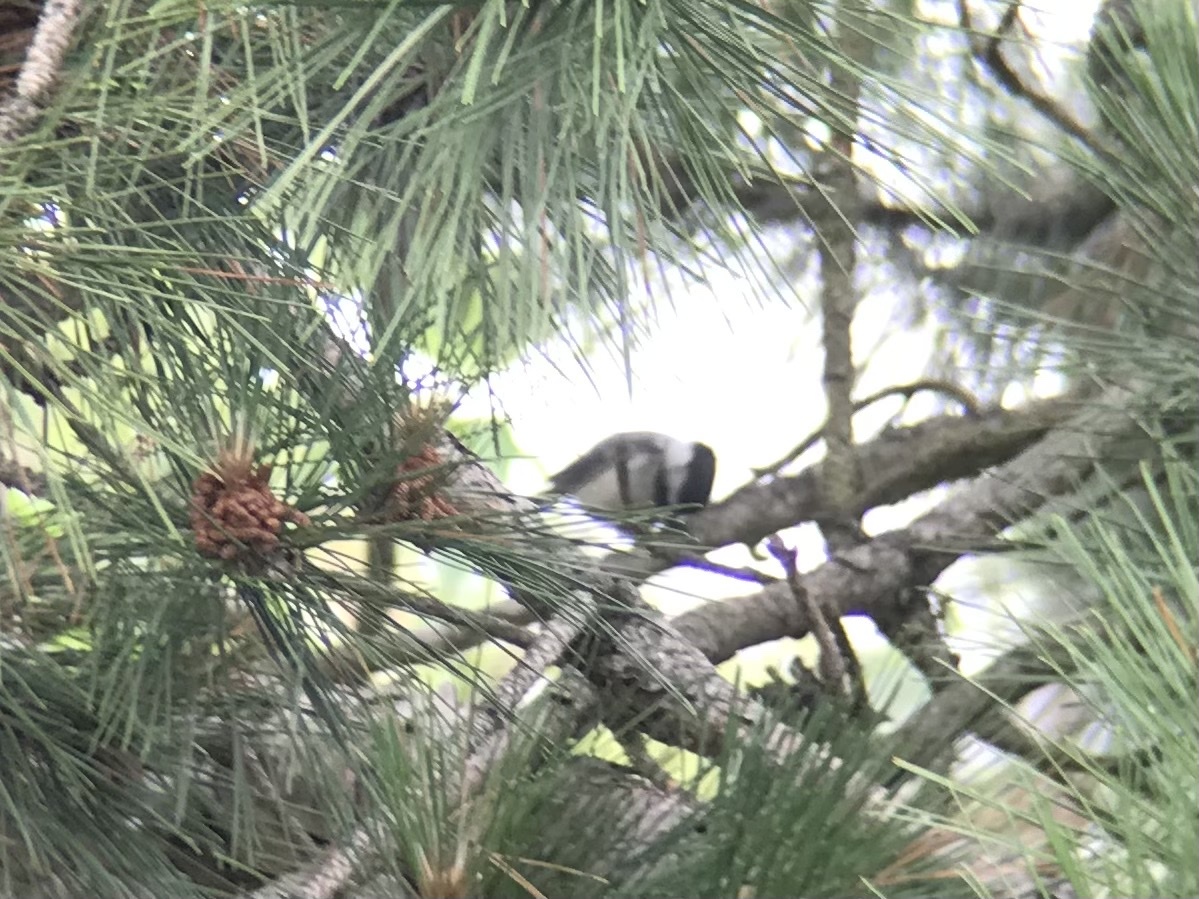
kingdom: Animalia
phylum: Chordata
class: Aves
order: Passeriformes
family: Paridae
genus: Poecile
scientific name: Poecile atricapillus
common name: Black-capped chickadee
